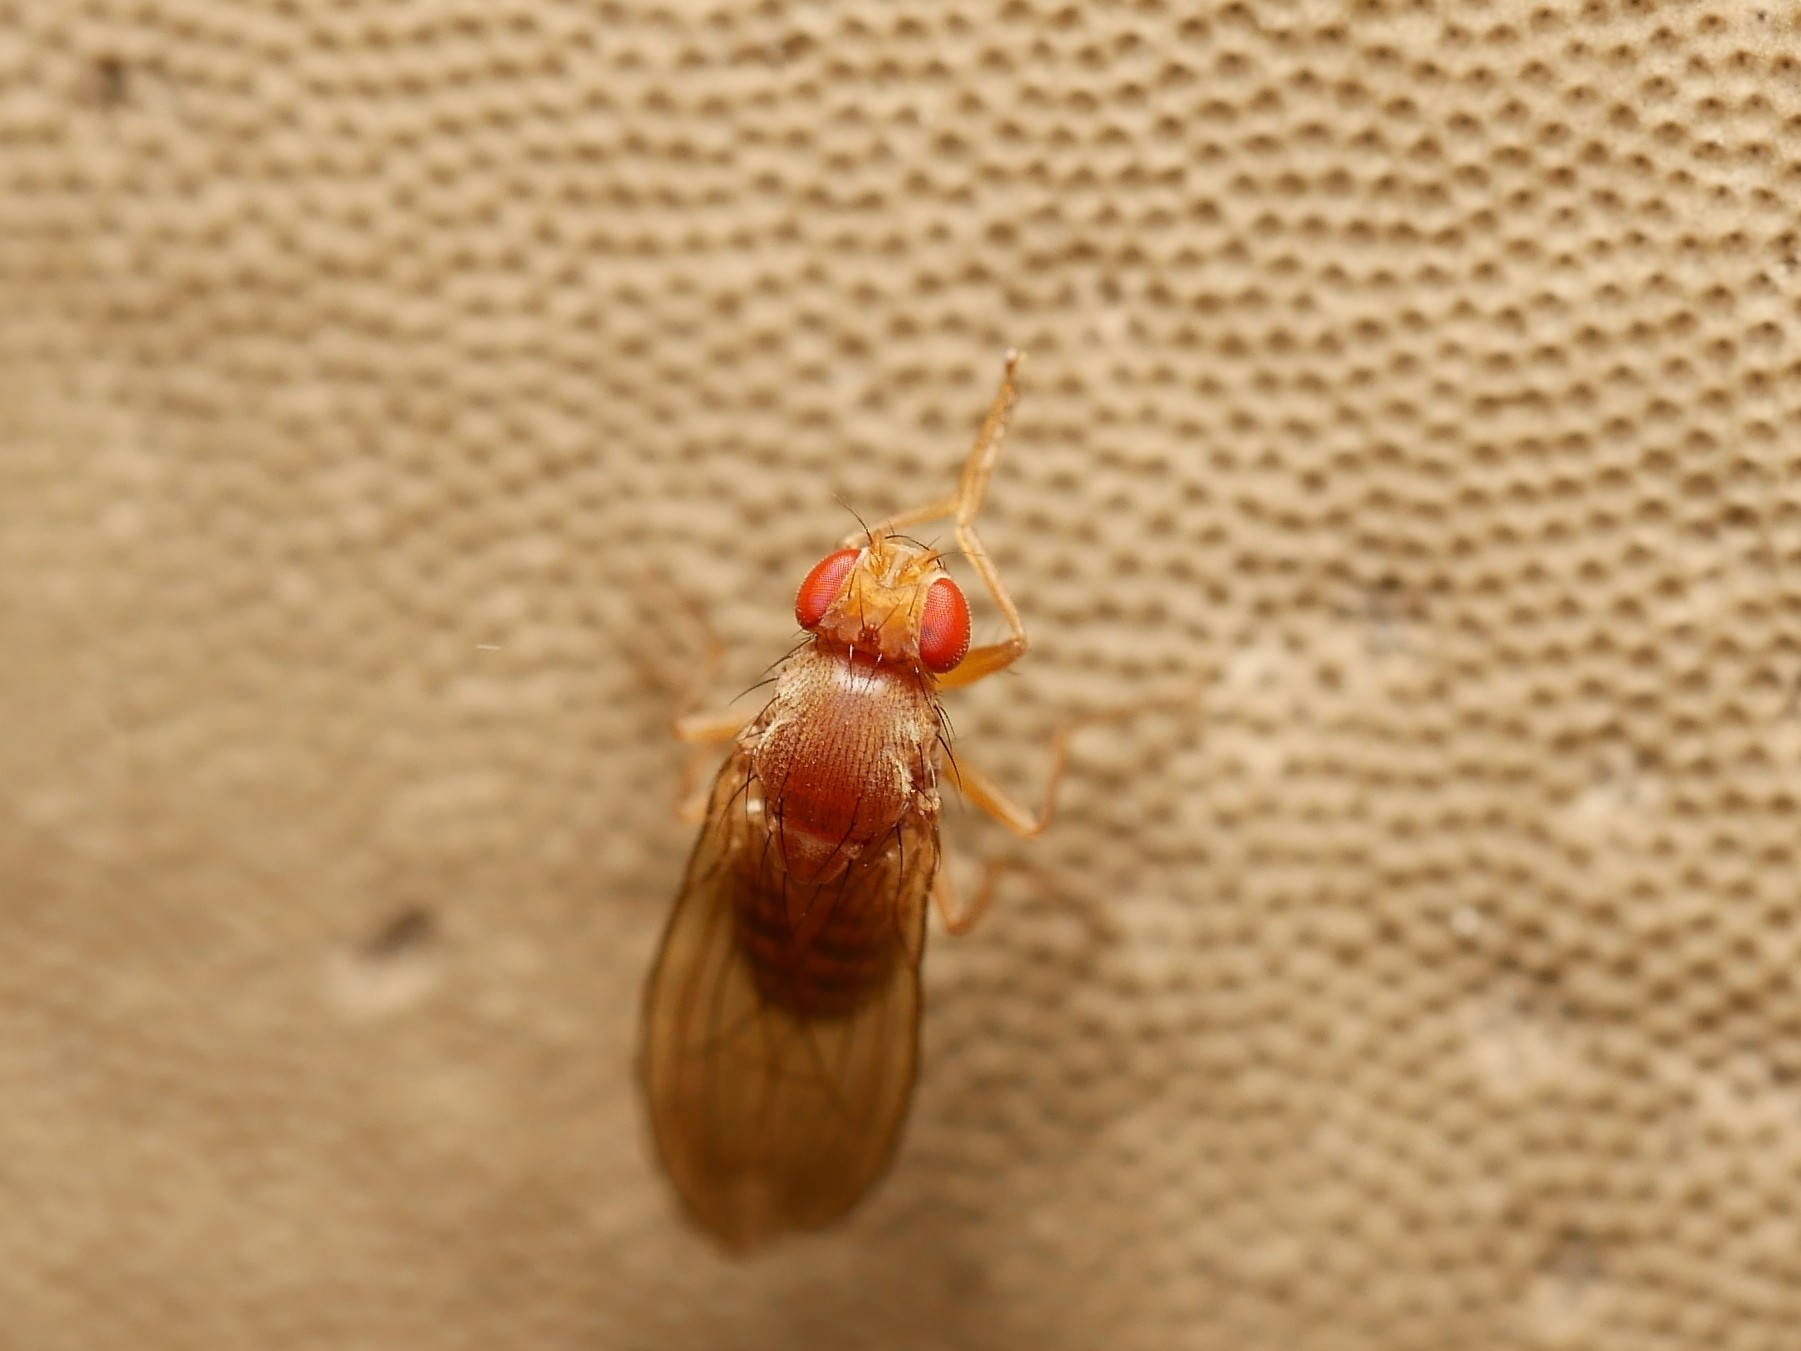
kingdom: Animalia
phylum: Arthropoda
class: Insecta
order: Diptera
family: Drosophilidae
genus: Hirtodrosophila
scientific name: Hirtodrosophila confusa
